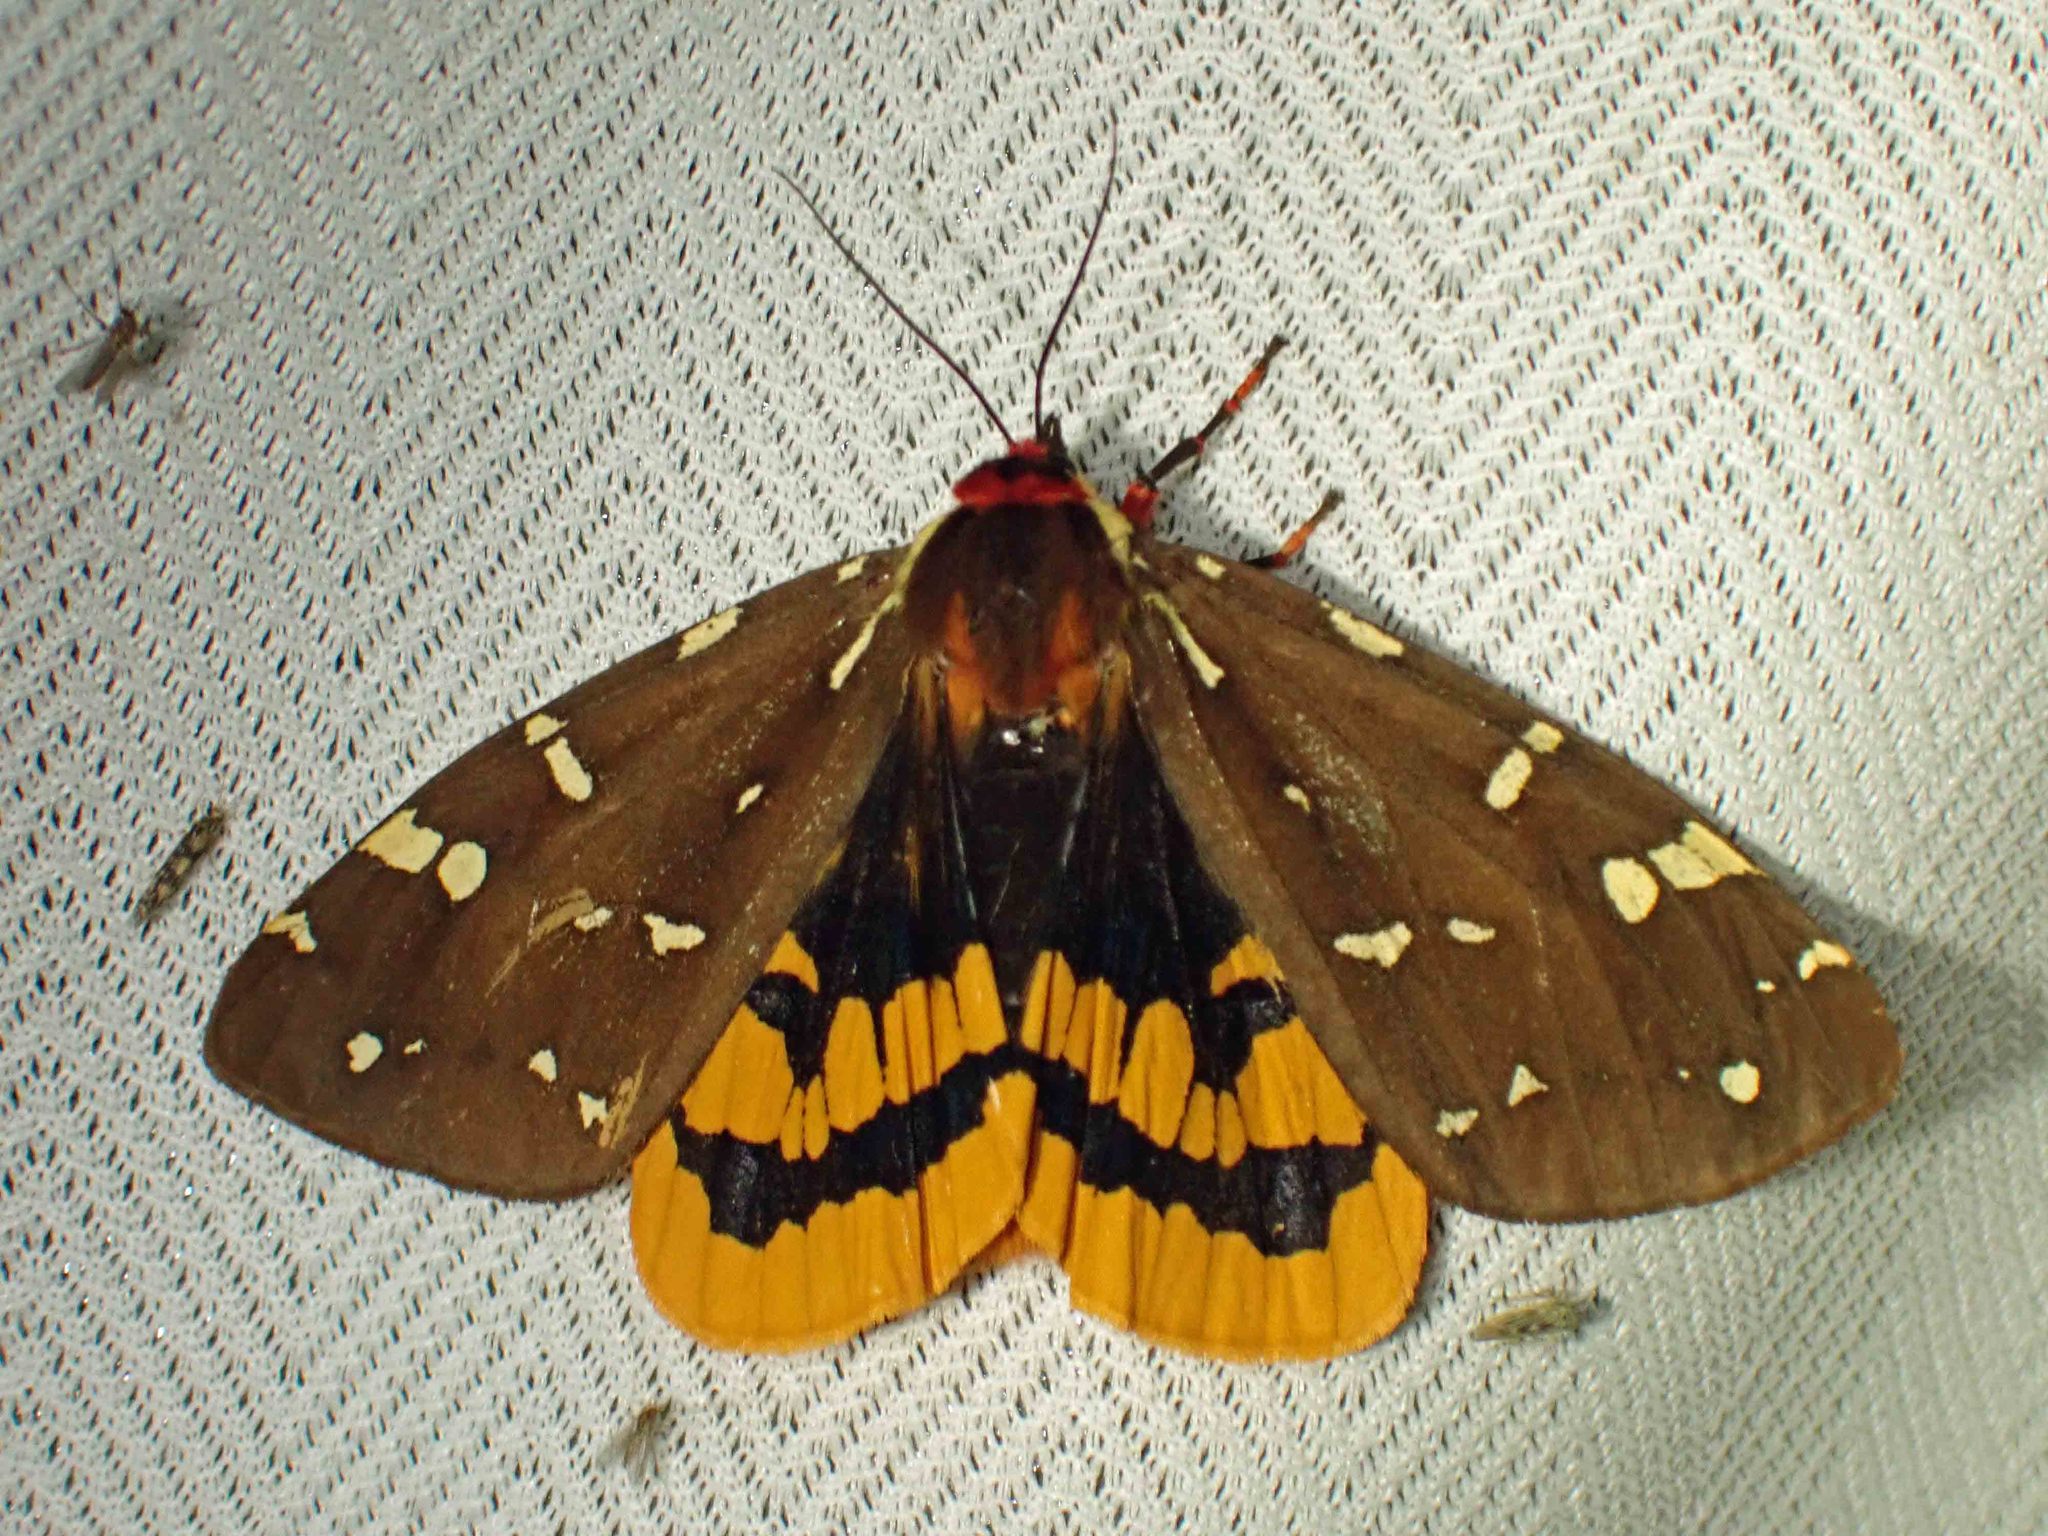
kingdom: Animalia
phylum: Arthropoda
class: Insecta
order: Lepidoptera
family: Erebidae
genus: Arctia
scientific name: Arctia parthenos
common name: St. lawrence tiger moth
